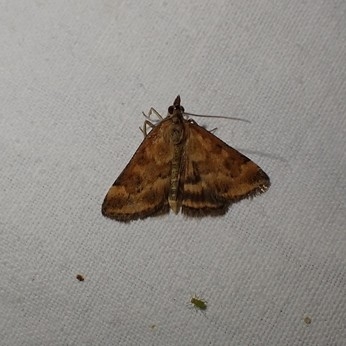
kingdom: Animalia
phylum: Arthropoda
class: Insecta
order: Lepidoptera
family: Crambidae
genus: Pyrausta
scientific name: Pyrausta despicata
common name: Straw-barred pearl
